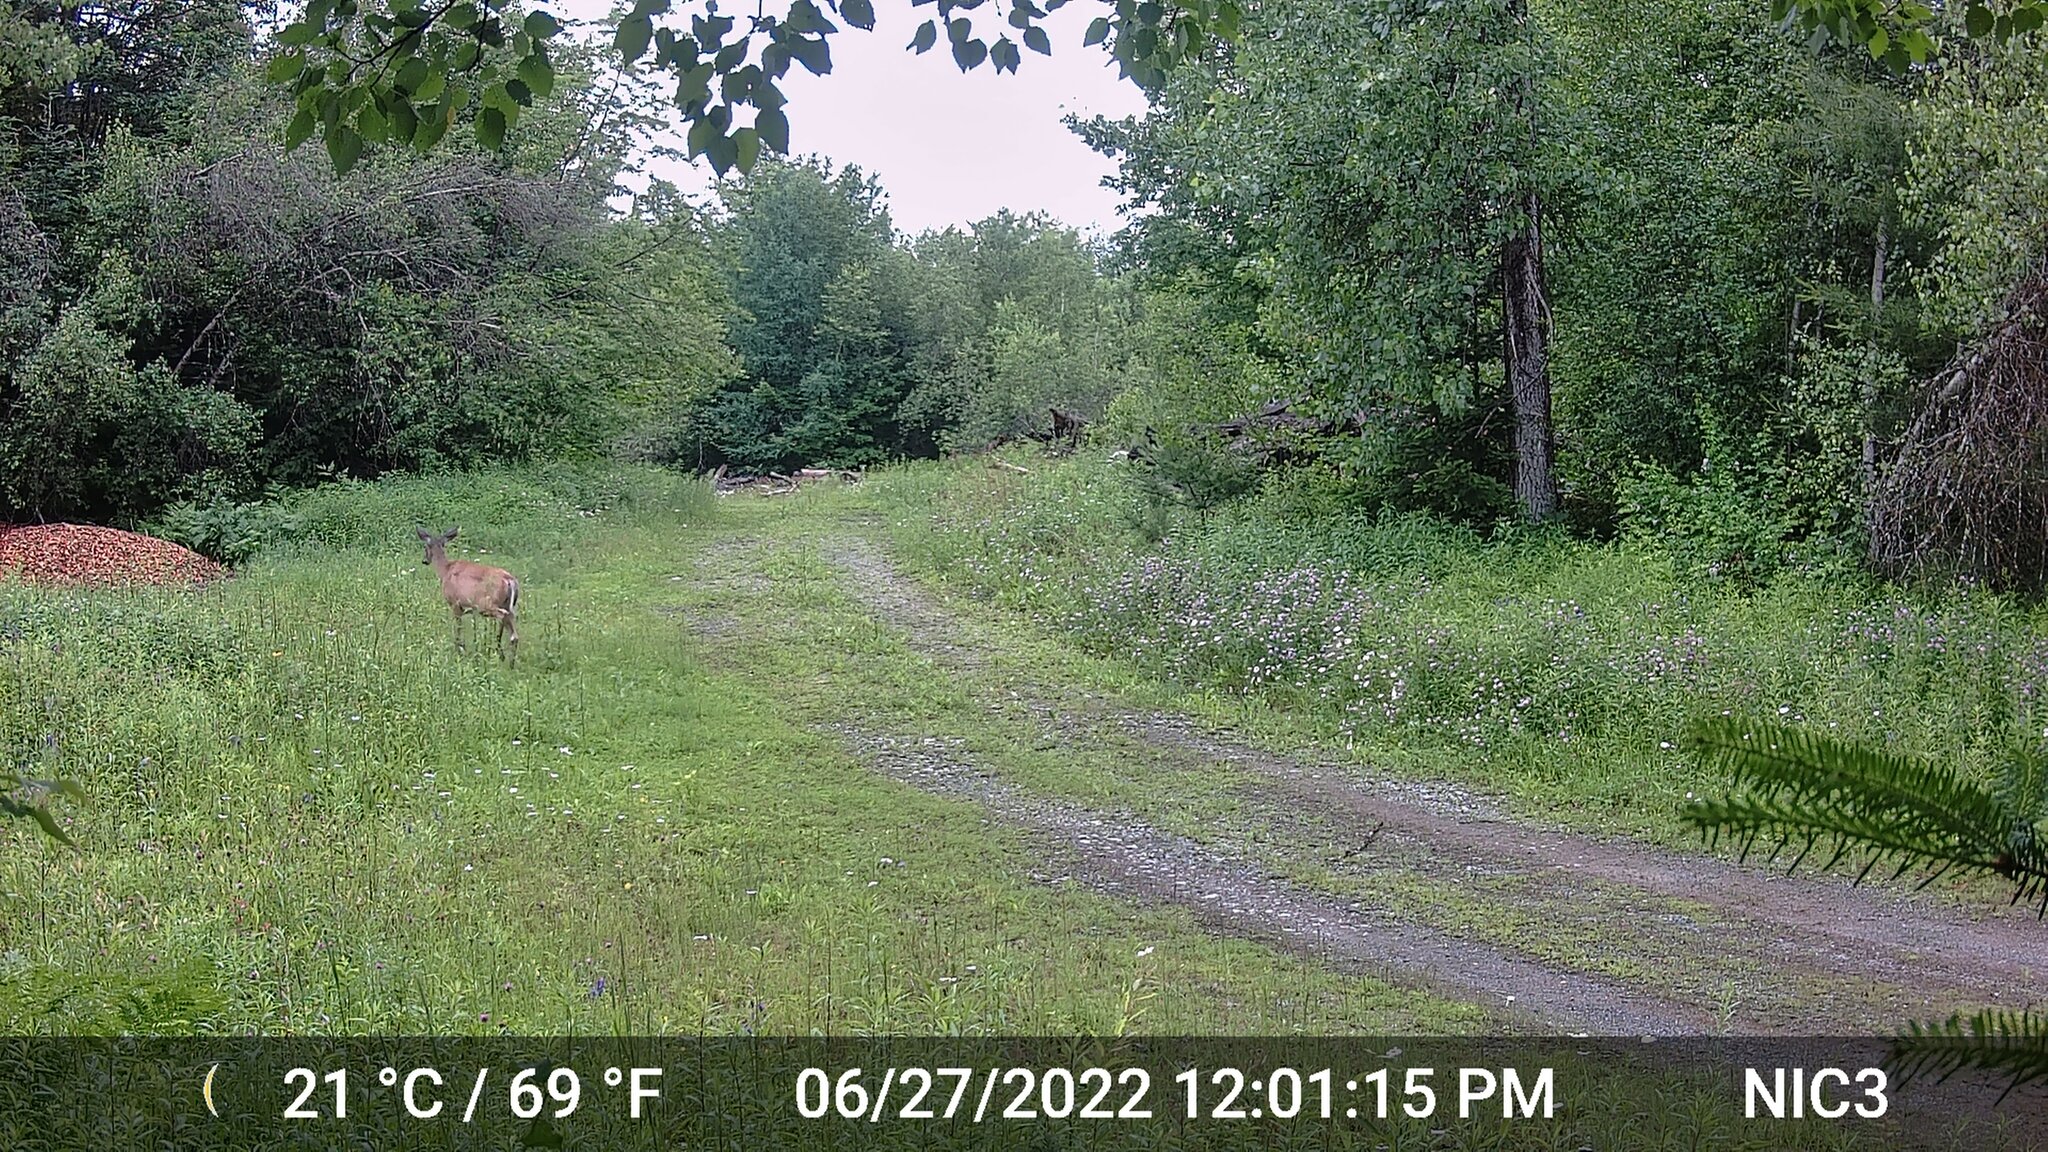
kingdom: Animalia
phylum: Chordata
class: Mammalia
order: Artiodactyla
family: Cervidae
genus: Odocoileus
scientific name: Odocoileus virginianus
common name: White-tailed deer
